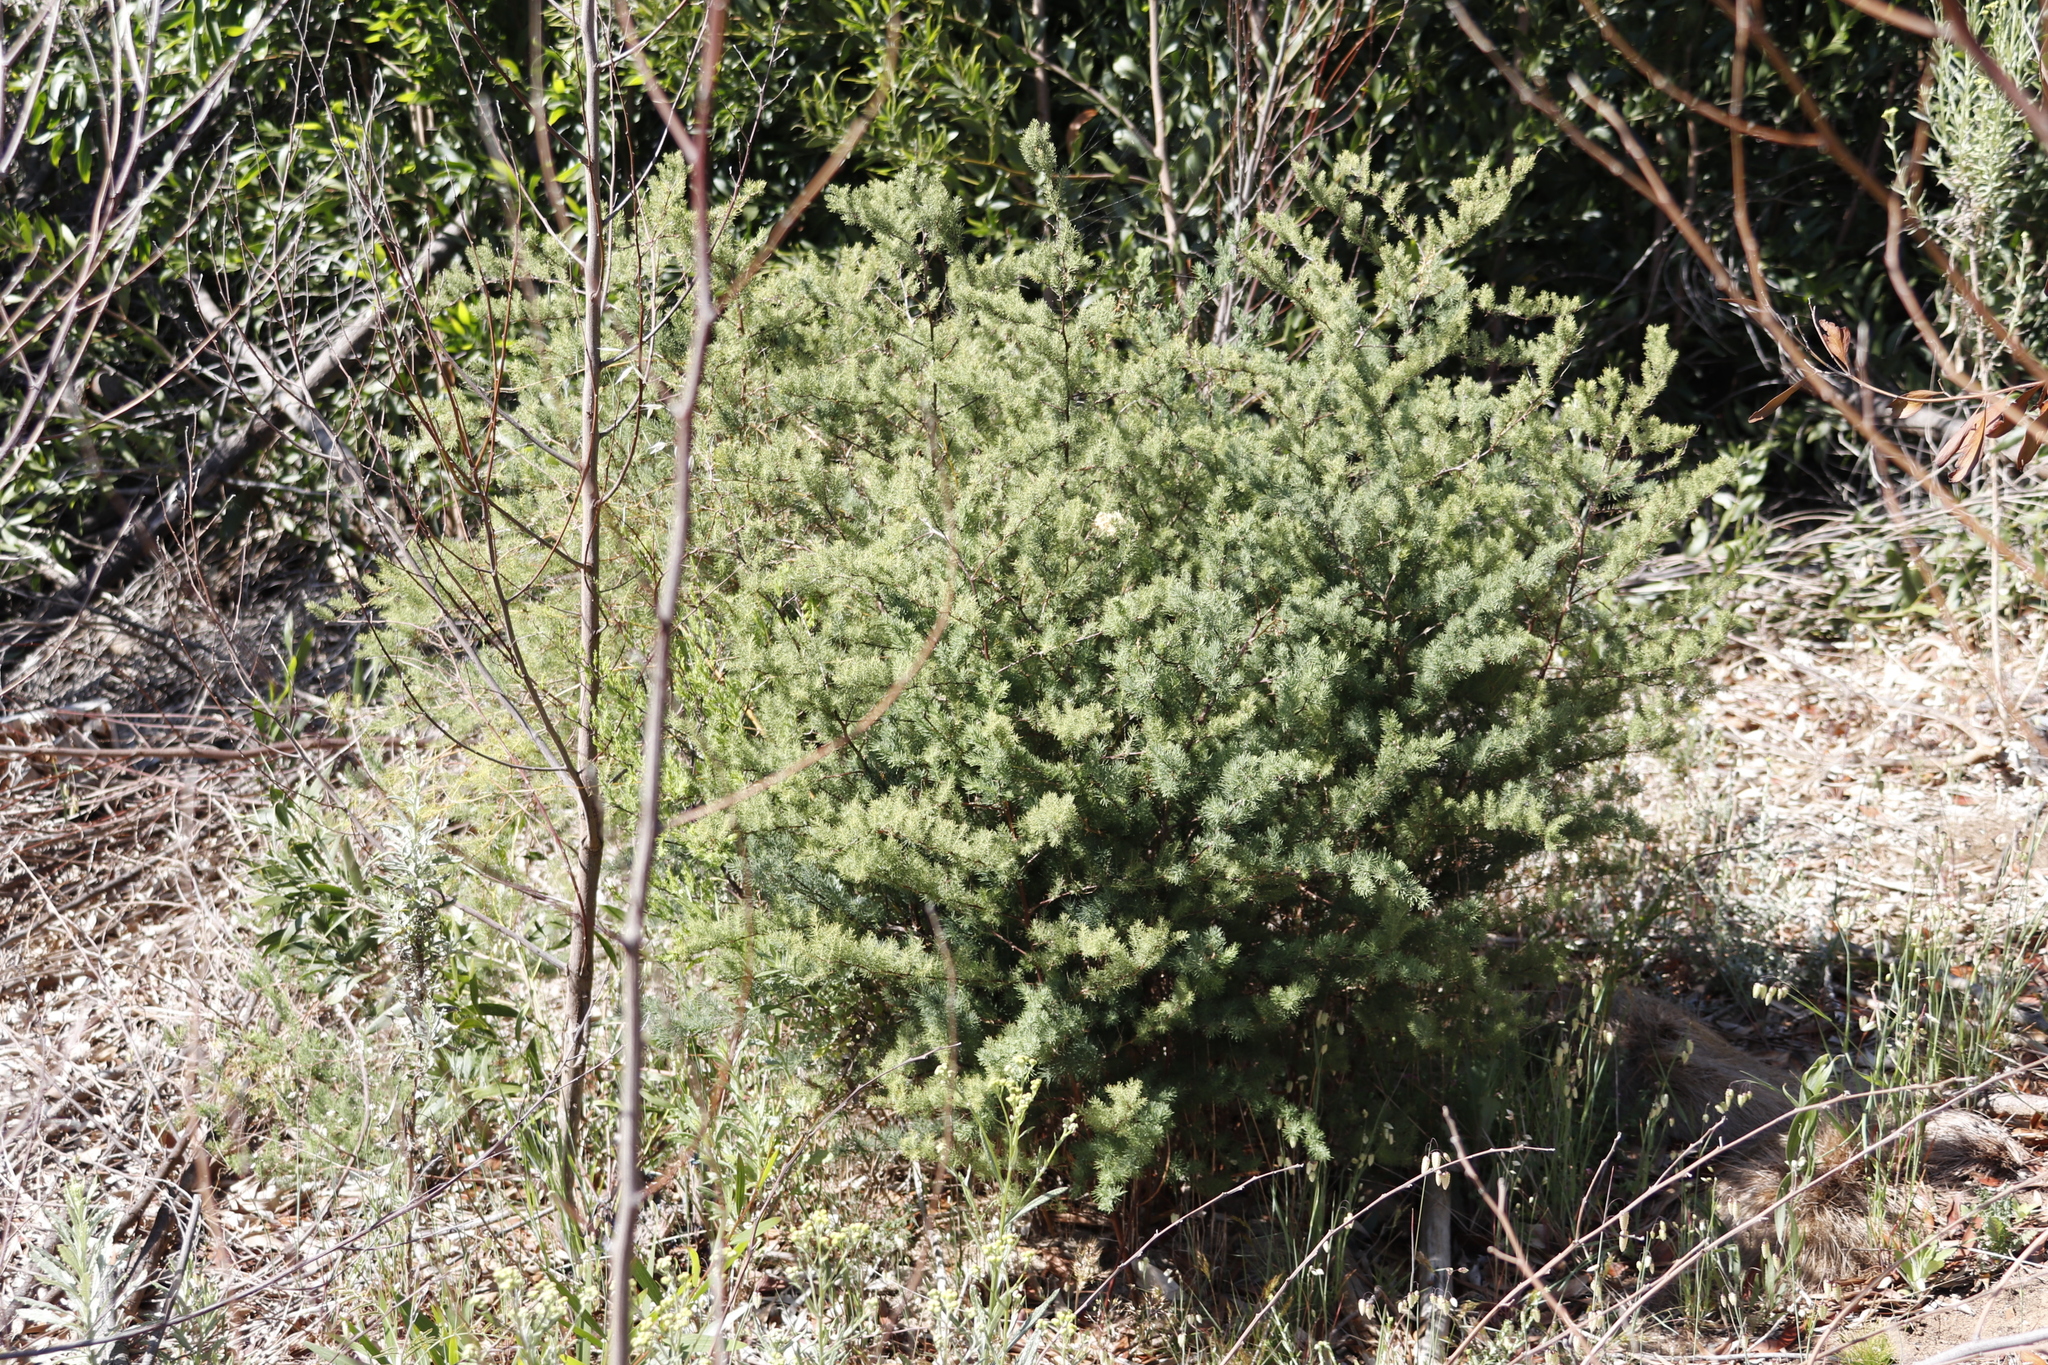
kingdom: Plantae
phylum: Tracheophyta
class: Liliopsida
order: Asparagales
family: Asparagaceae
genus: Asparagus
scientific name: Asparagus rubicundus
